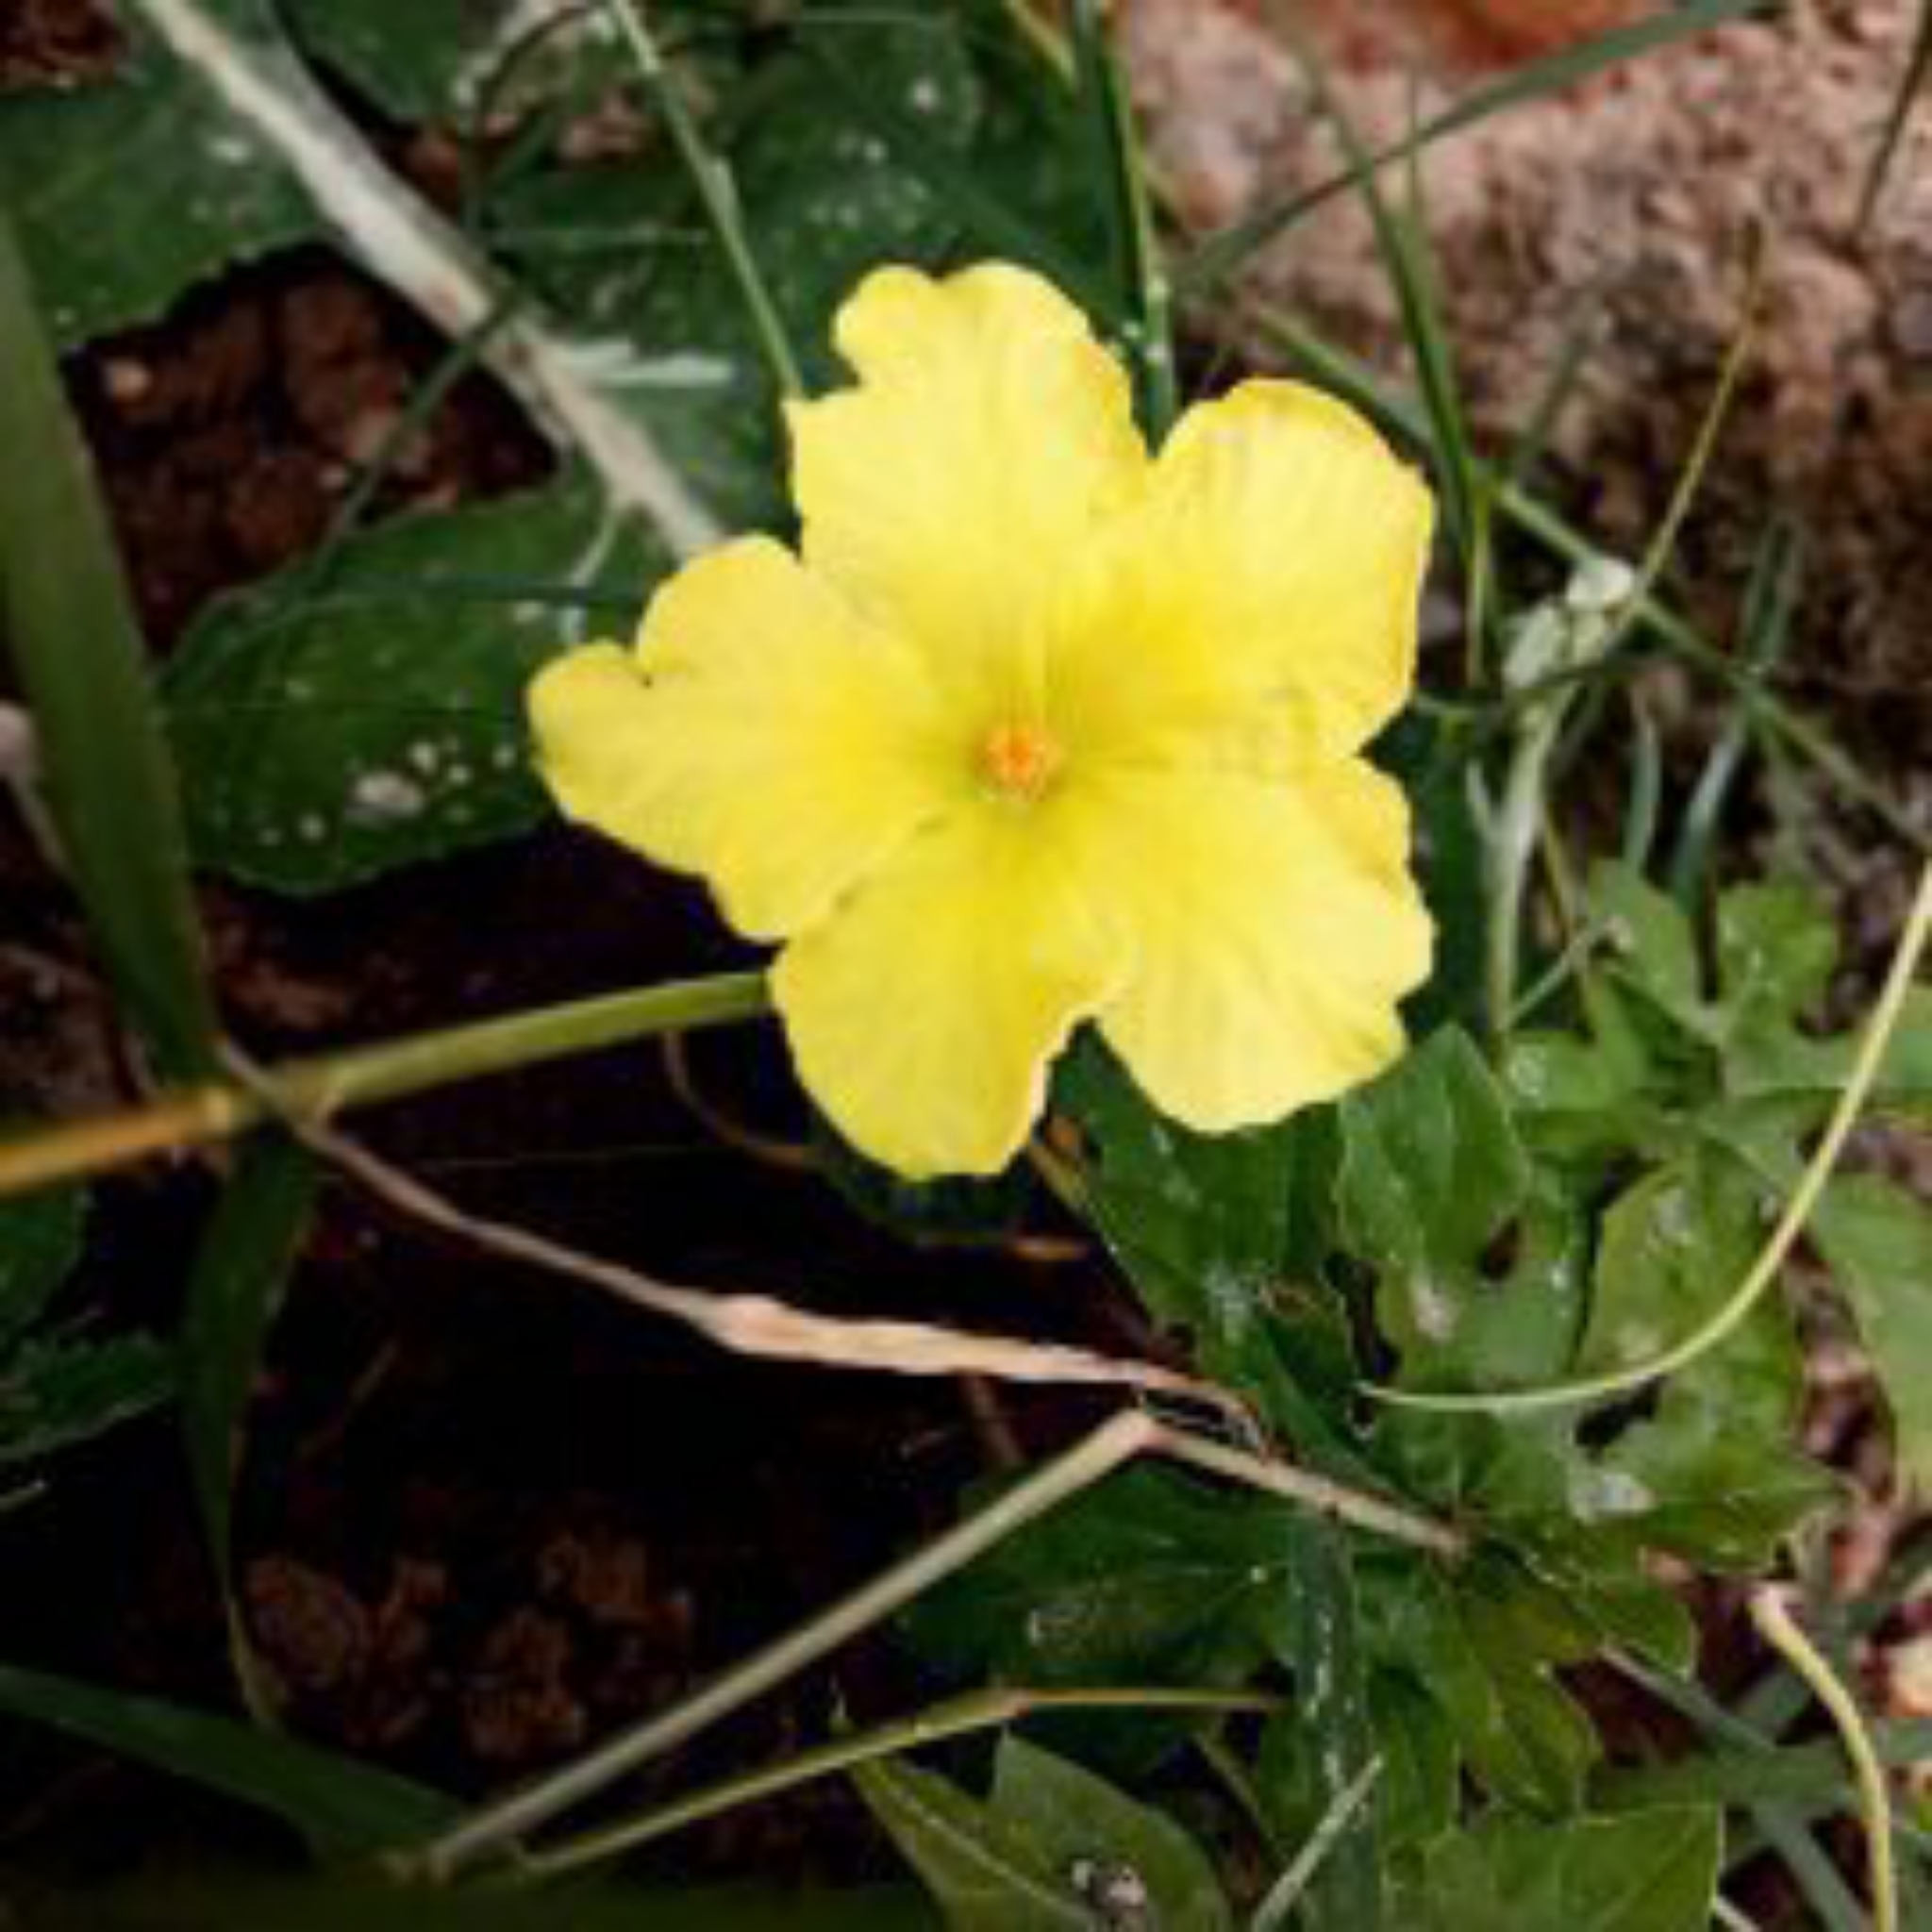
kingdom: Plantae
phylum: Tracheophyta
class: Magnoliopsida
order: Cucurbitales
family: Cucurbitaceae
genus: Momordica
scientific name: Momordica charantia
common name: Balsampear
